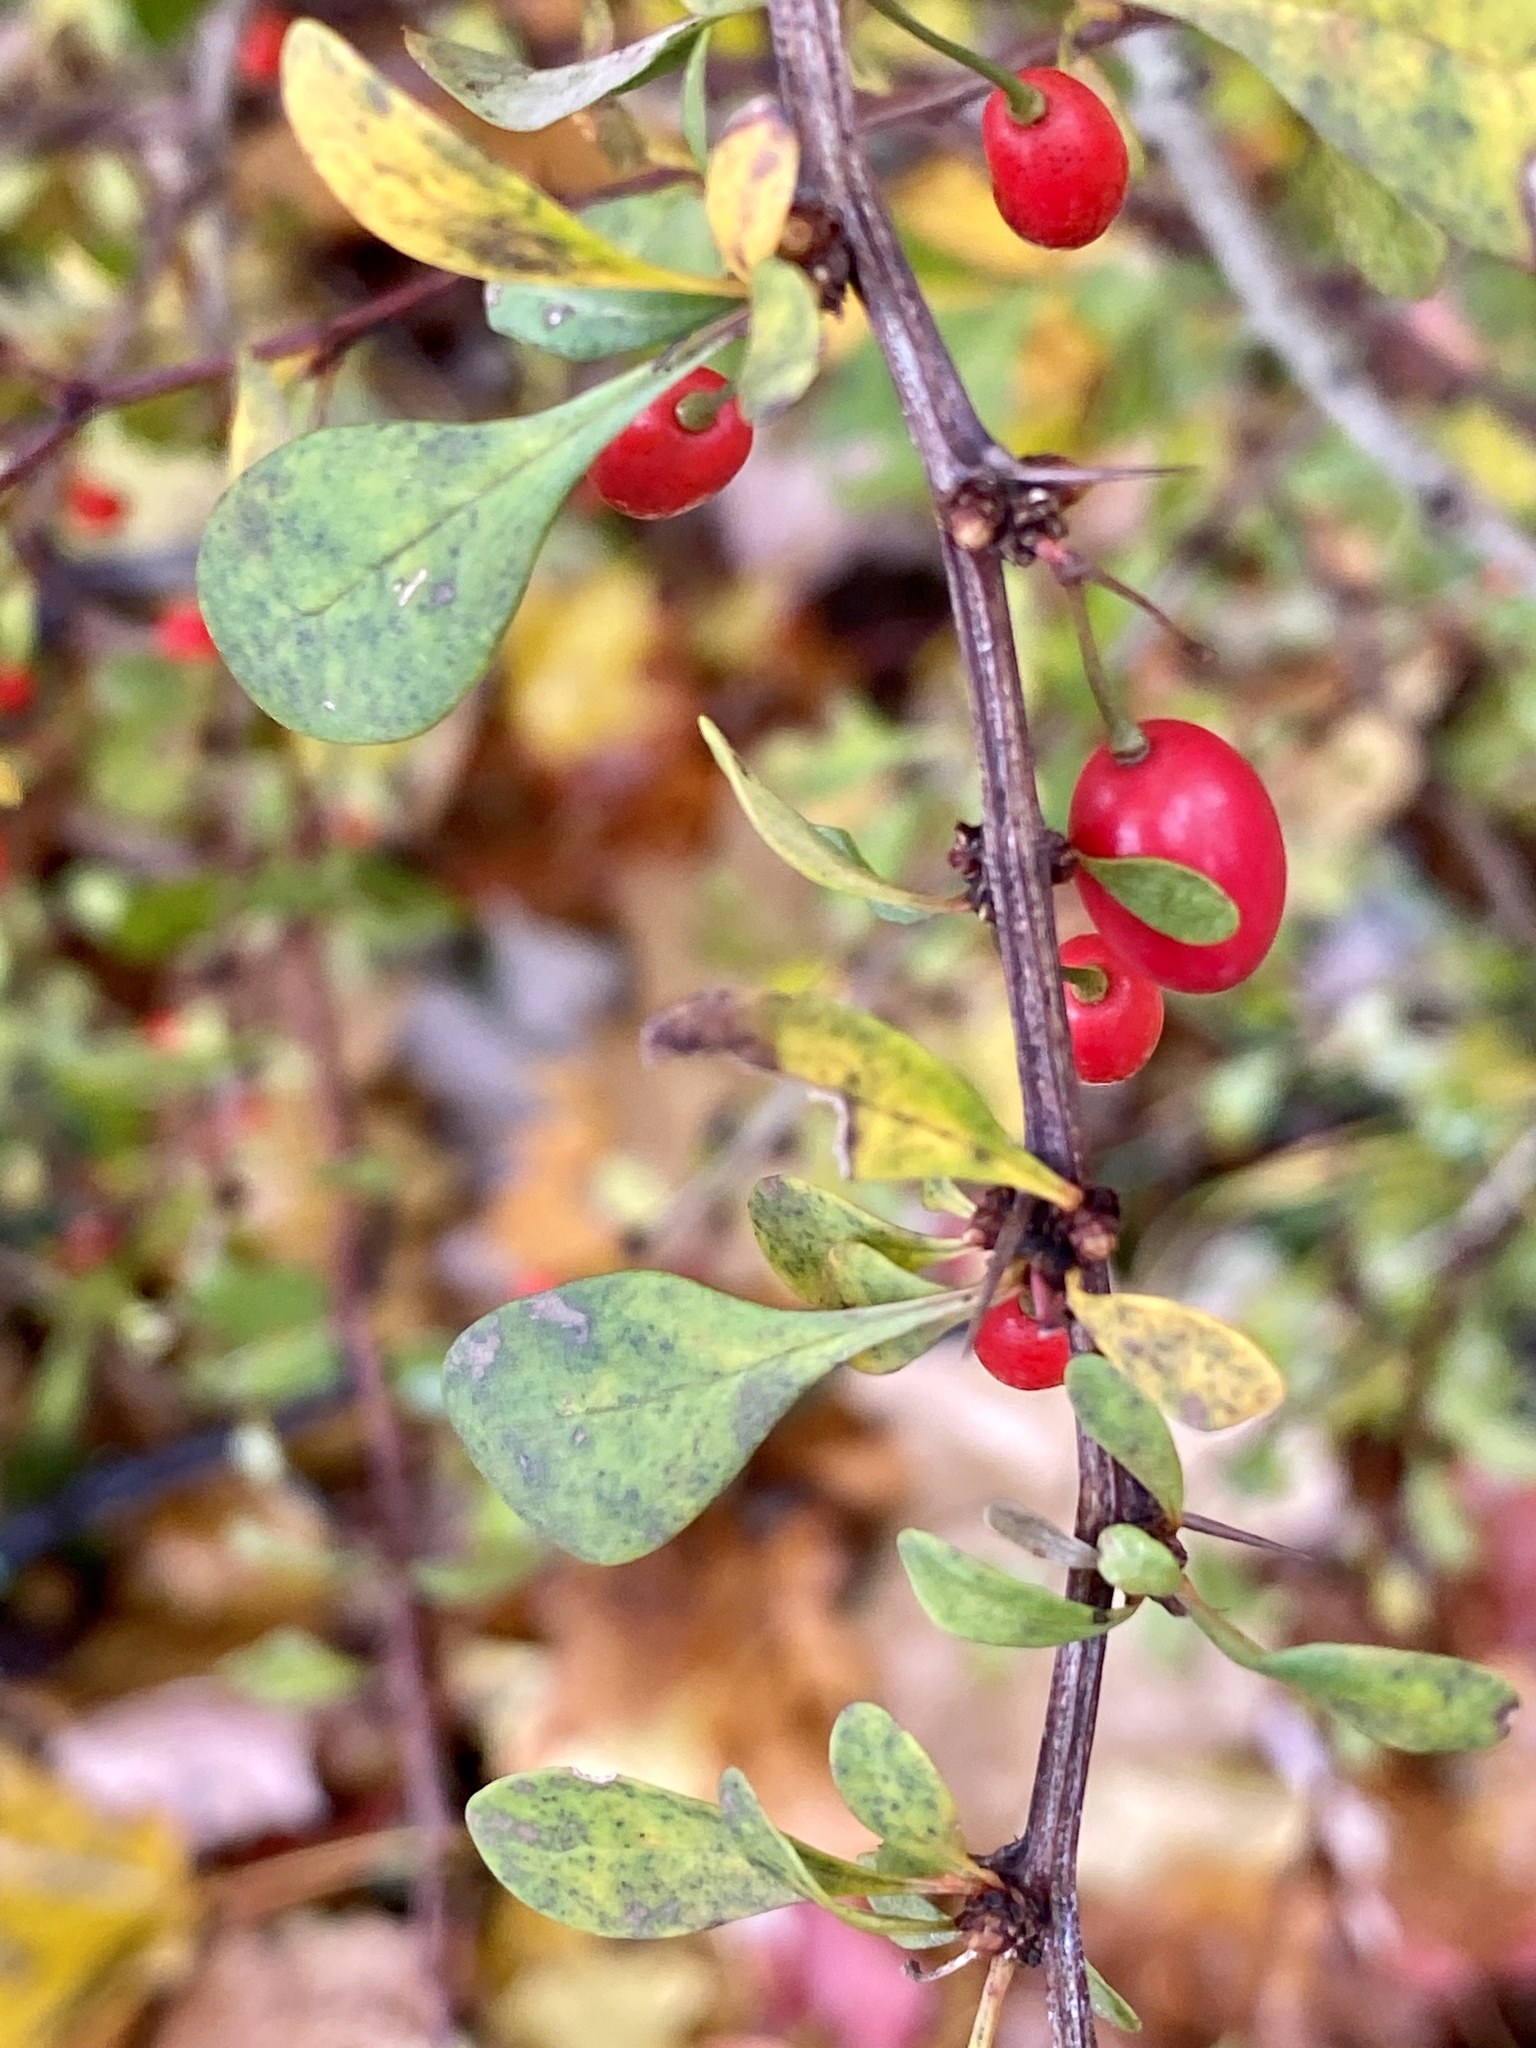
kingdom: Plantae
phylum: Tracheophyta
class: Magnoliopsida
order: Ranunculales
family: Berberidaceae
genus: Berberis
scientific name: Berberis thunbergii
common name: Japanese barberry
